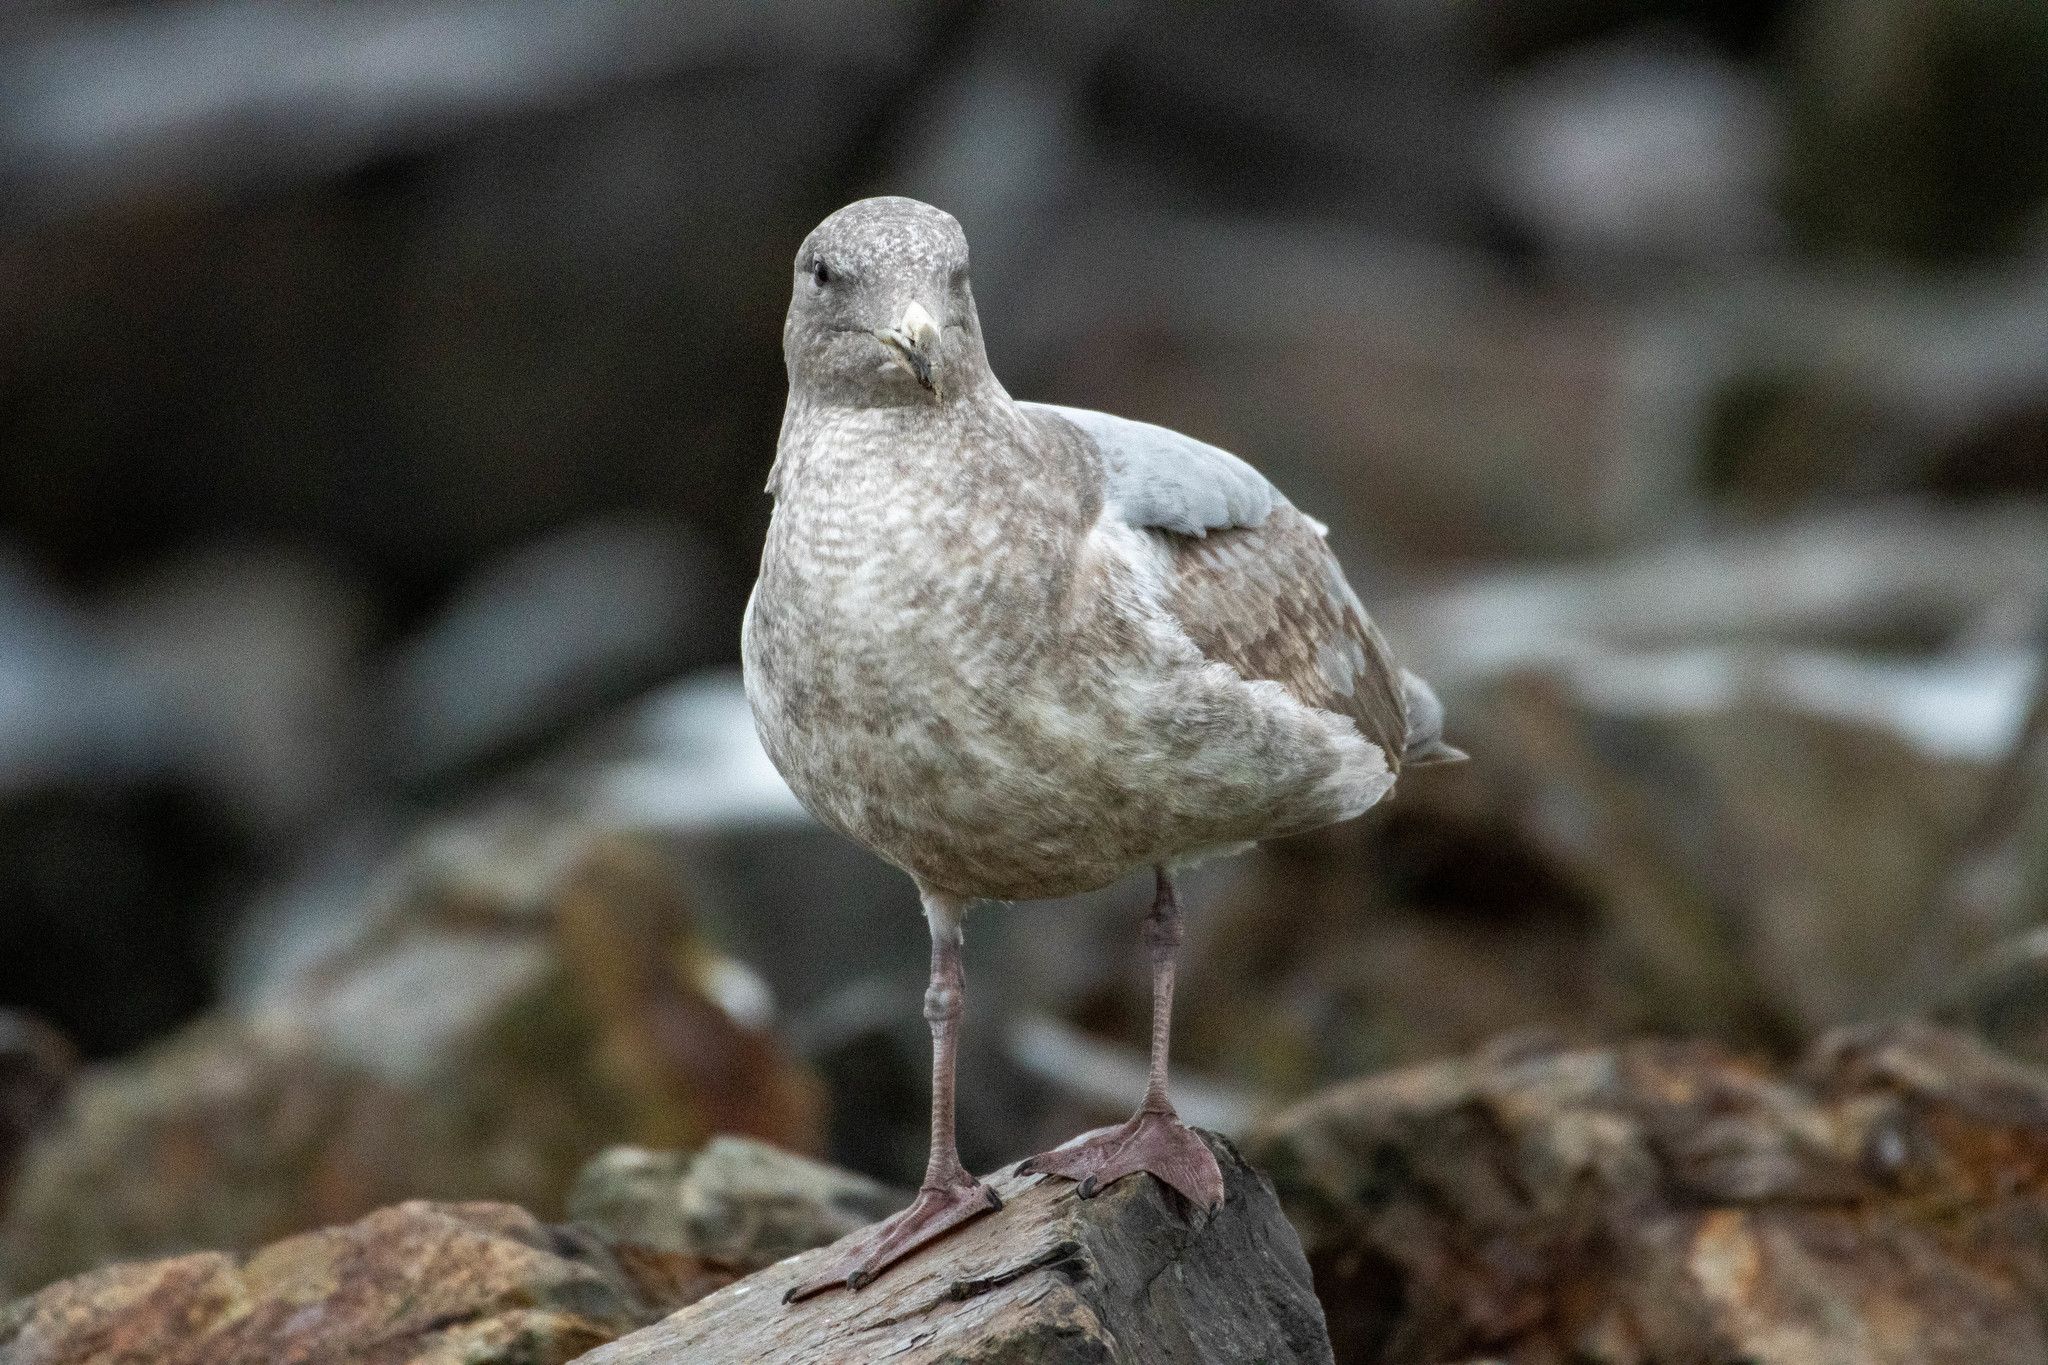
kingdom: Animalia
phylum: Chordata
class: Aves
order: Charadriiformes
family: Laridae
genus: Larus
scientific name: Larus
